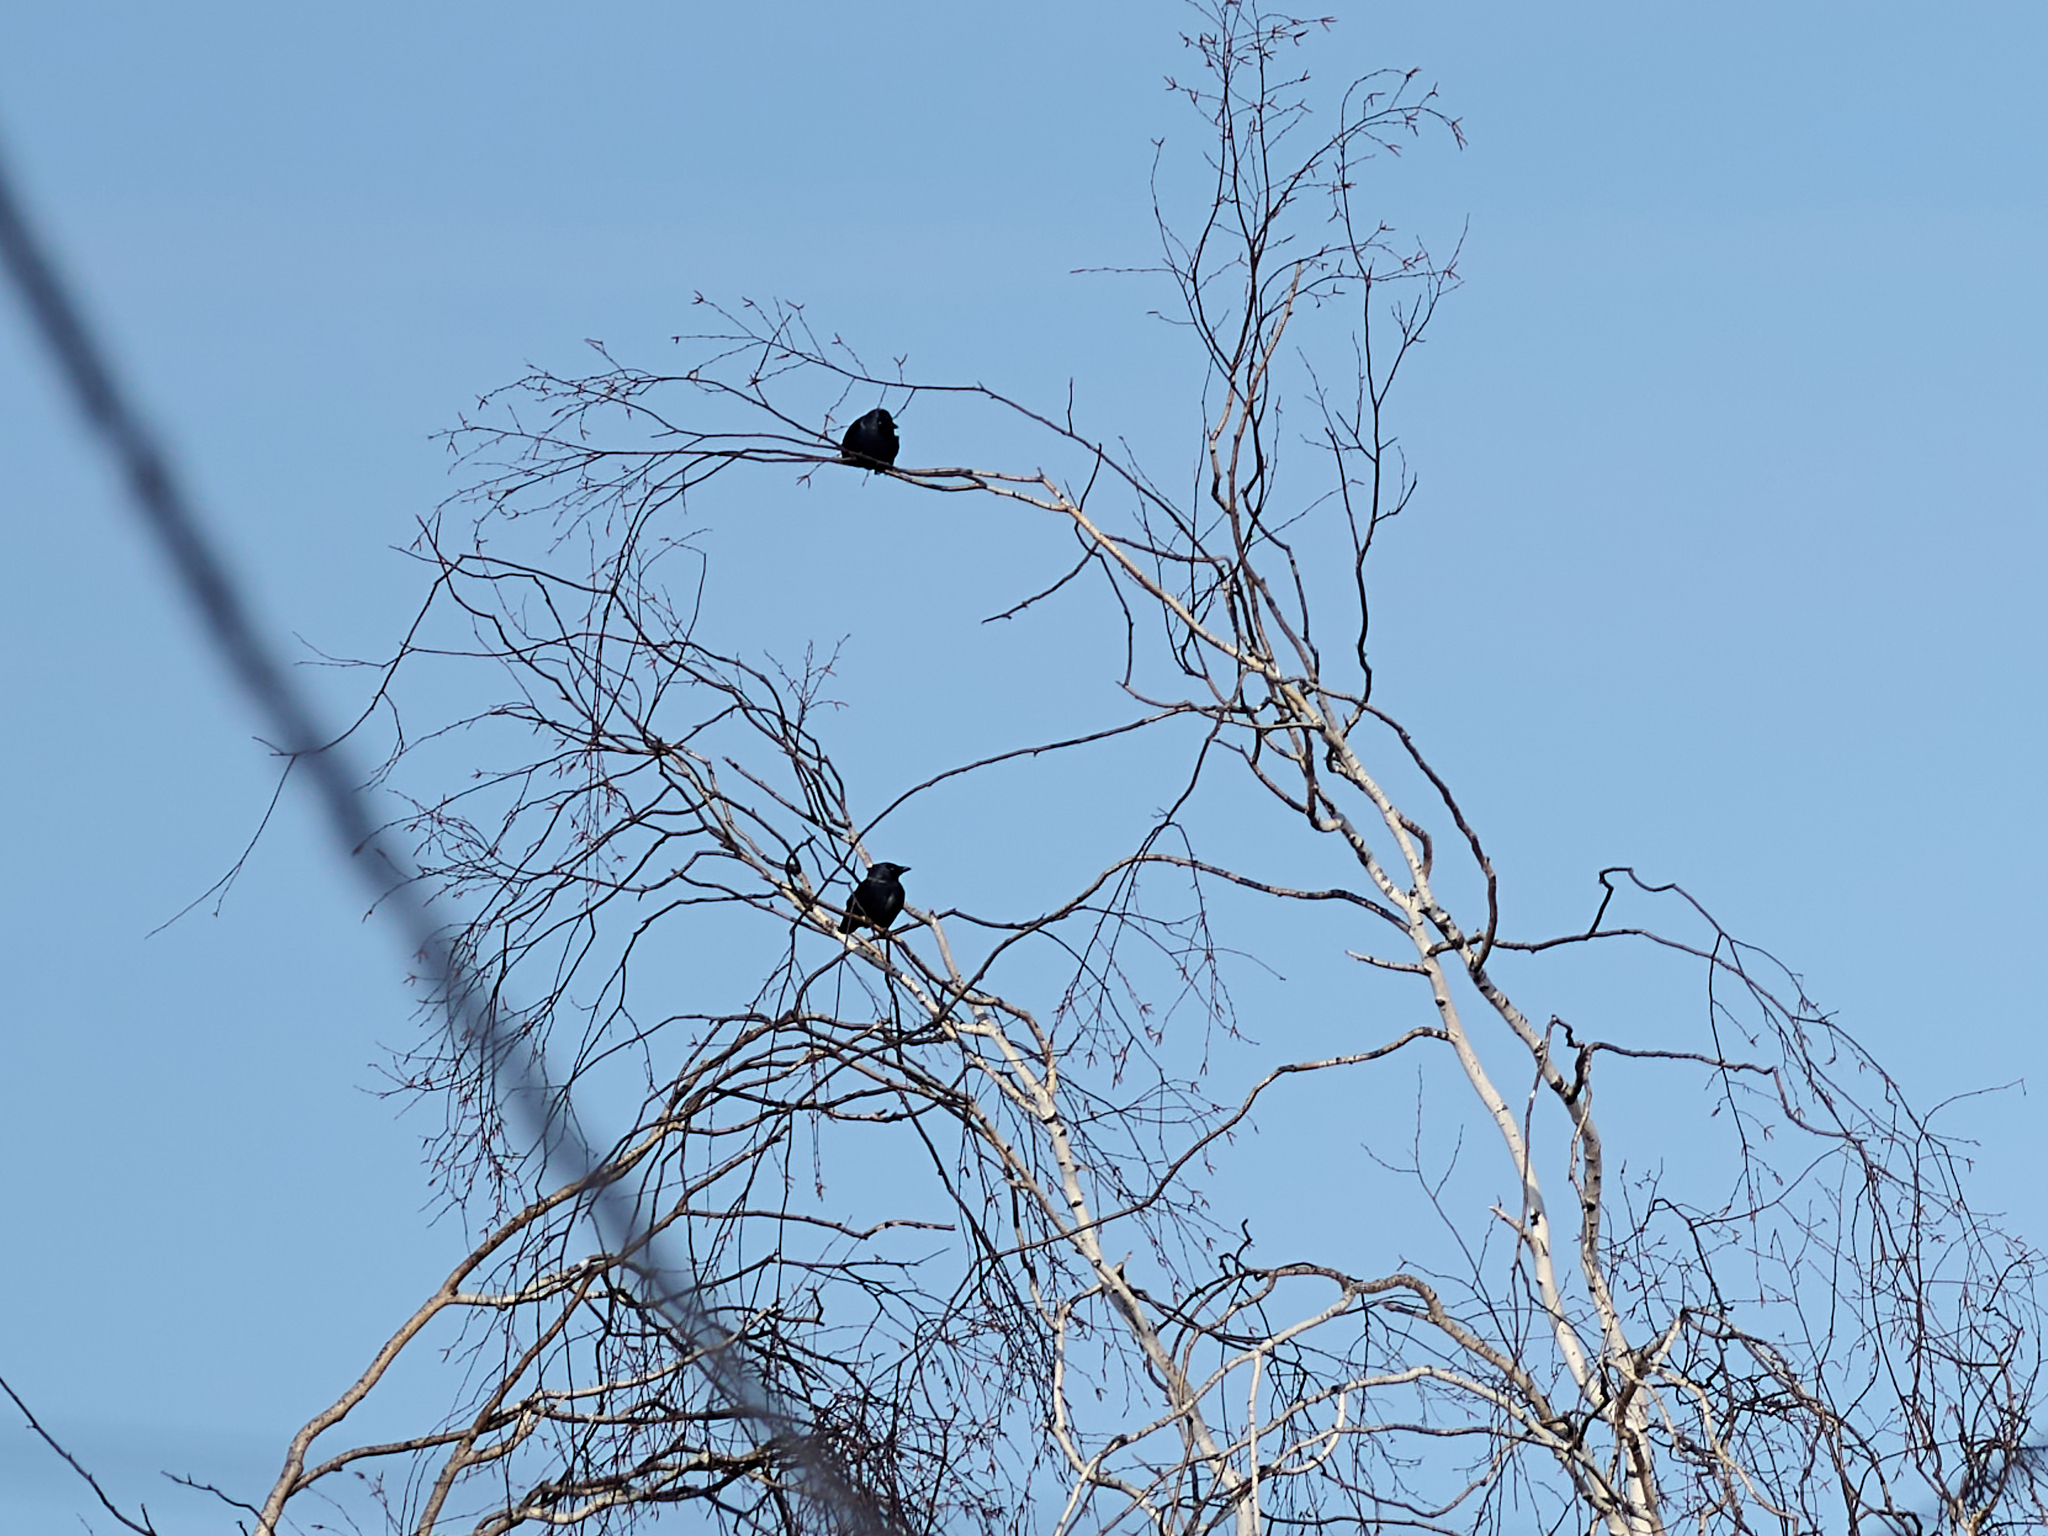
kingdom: Animalia
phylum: Chordata
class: Aves
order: Passeriformes
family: Corvidae
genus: Coloeus
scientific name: Coloeus monedula
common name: Western jackdaw
